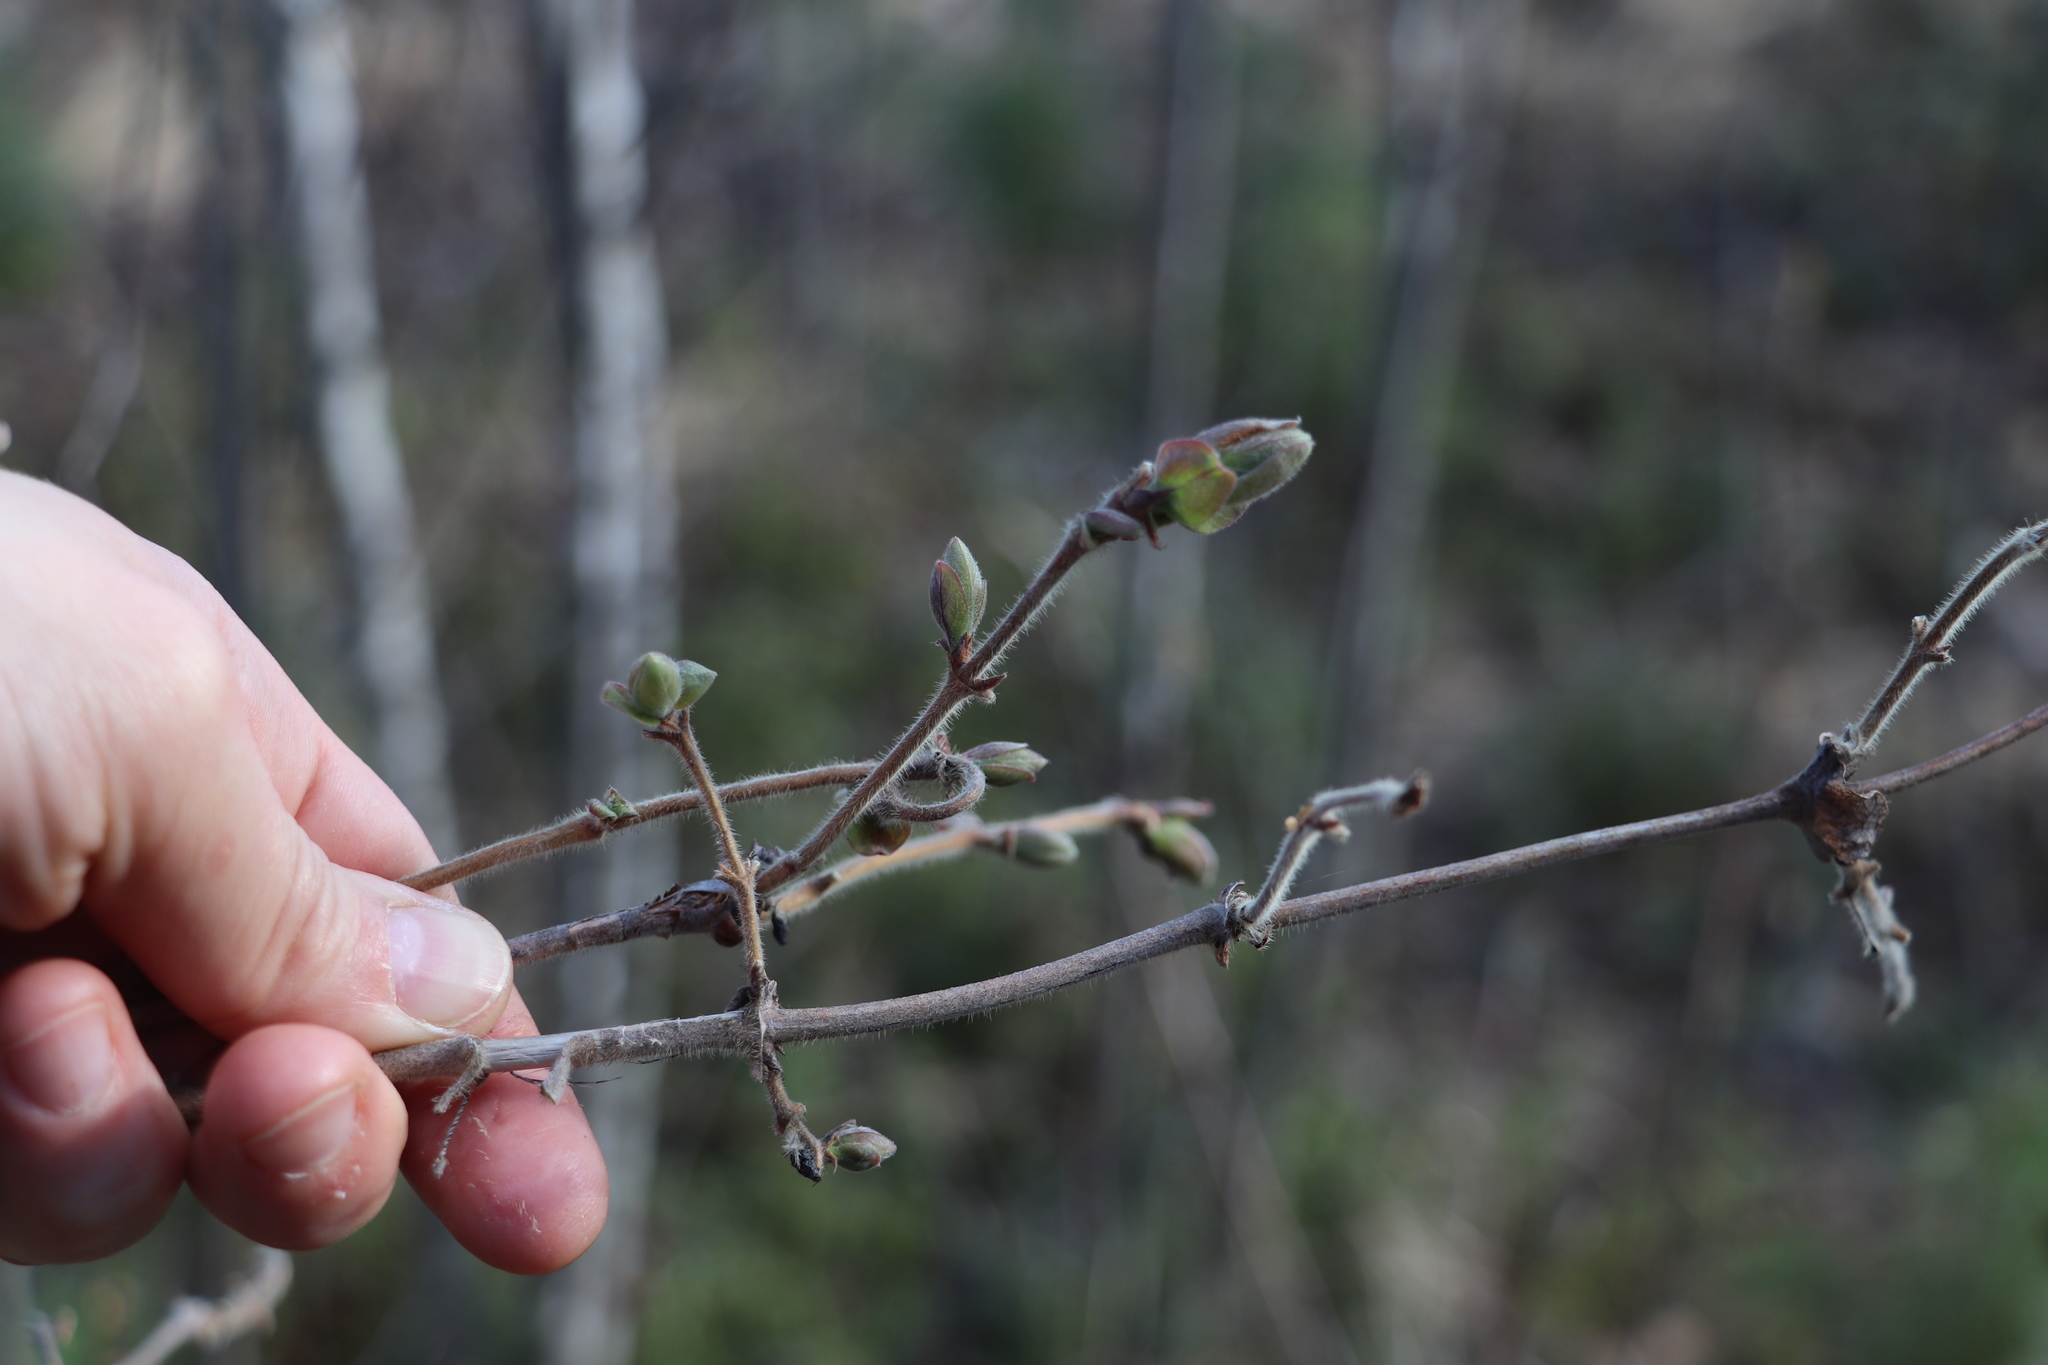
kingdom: Plantae
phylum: Tracheophyta
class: Magnoliopsida
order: Dipsacales
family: Caprifoliaceae
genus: Lonicera
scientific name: Lonicera caerulea
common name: Blue honeysuckle
